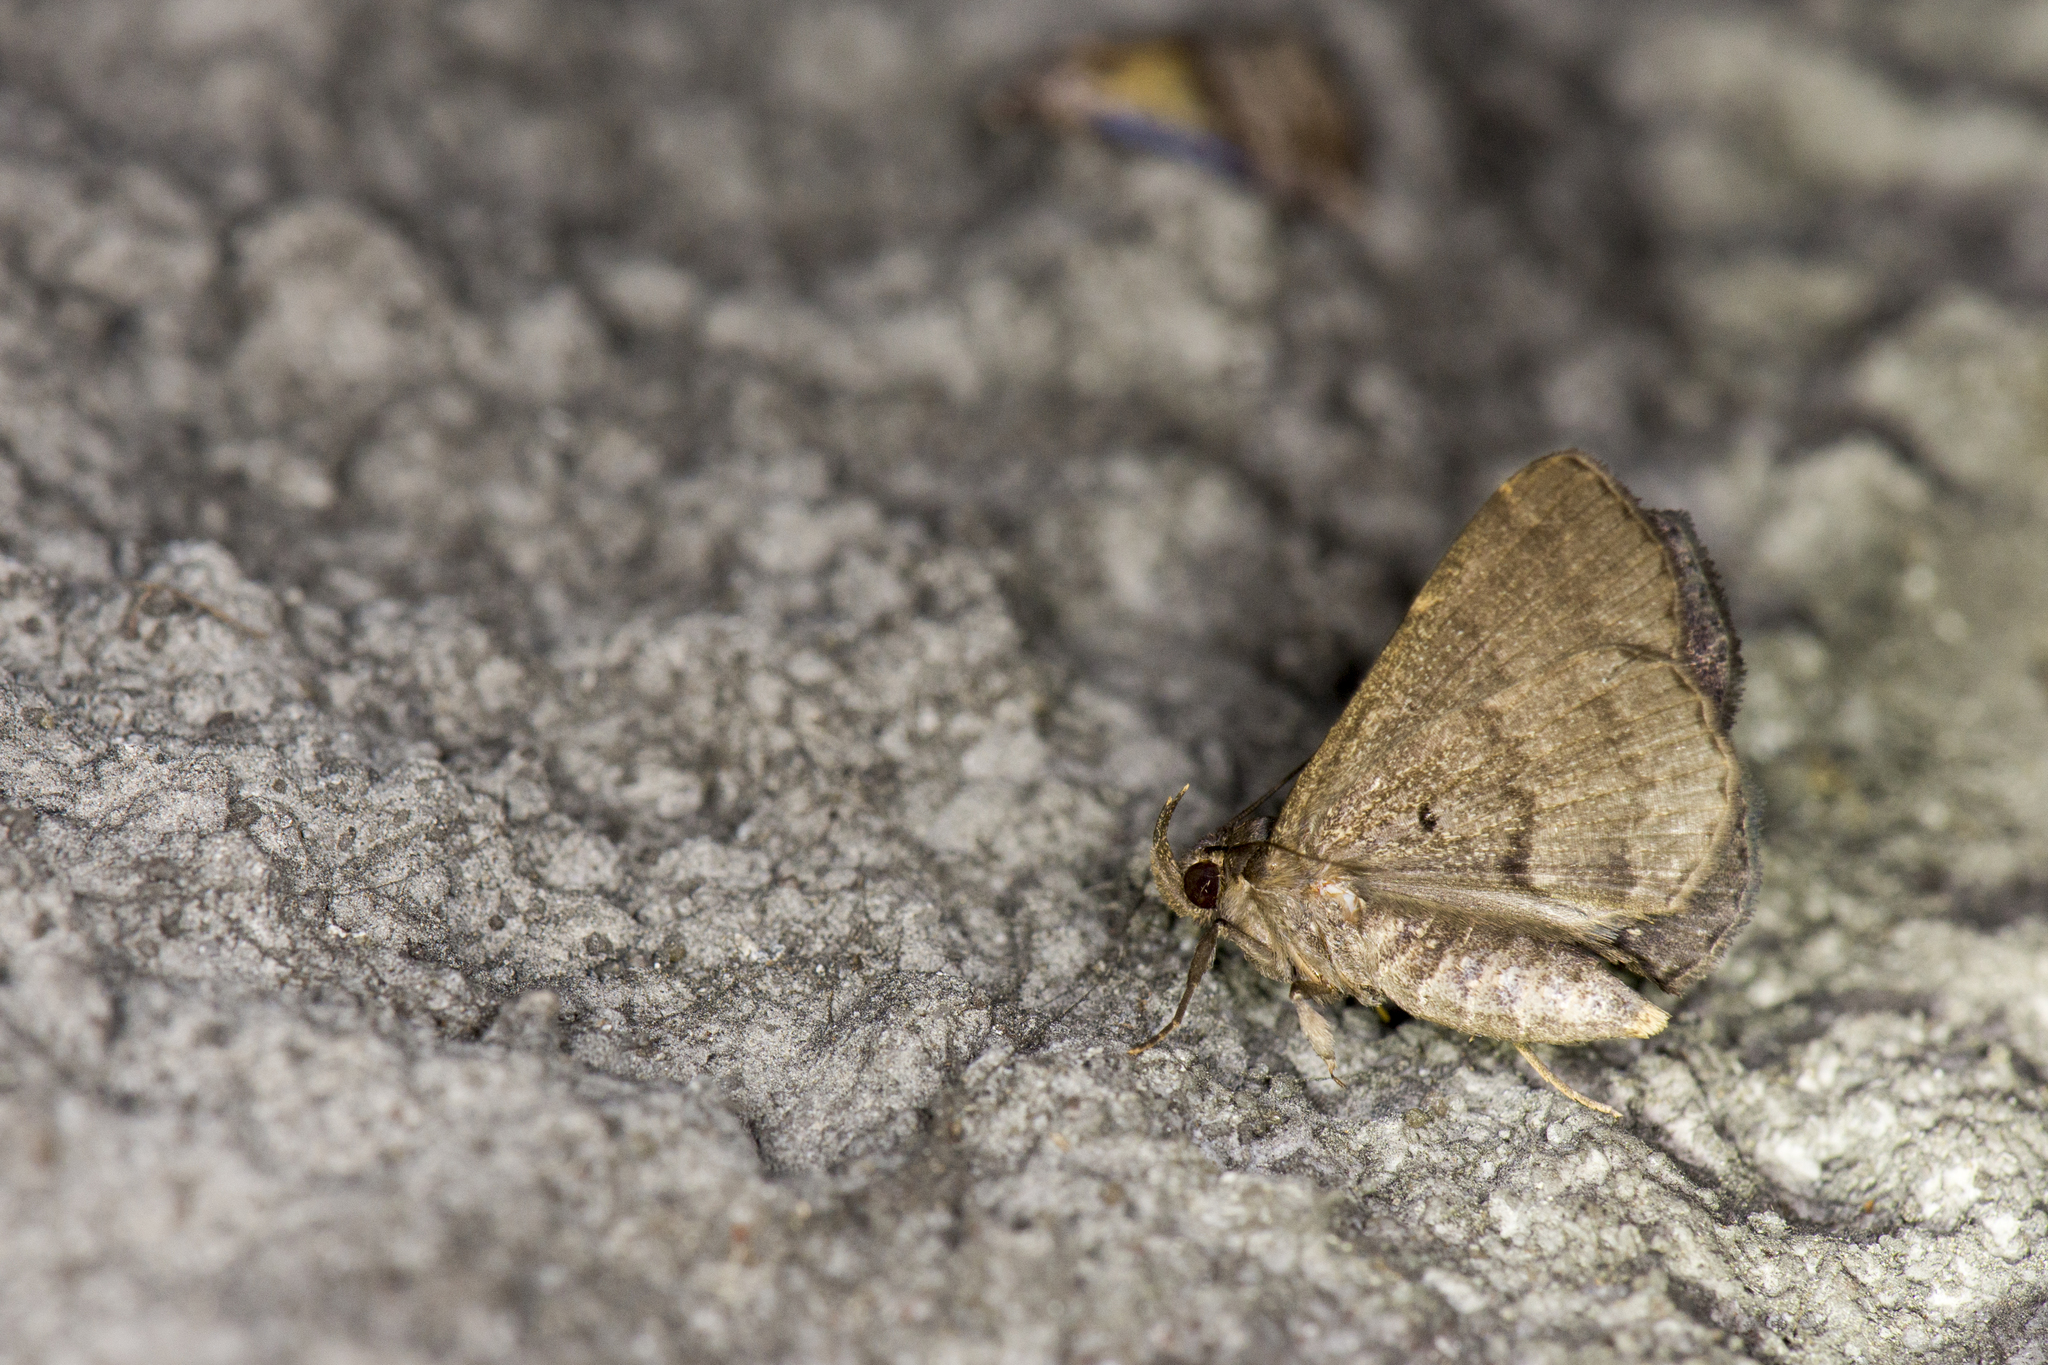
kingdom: Animalia
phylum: Arthropoda
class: Insecta
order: Lepidoptera
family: Erebidae
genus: Bocana
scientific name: Bocana manifestalis
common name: Moth
